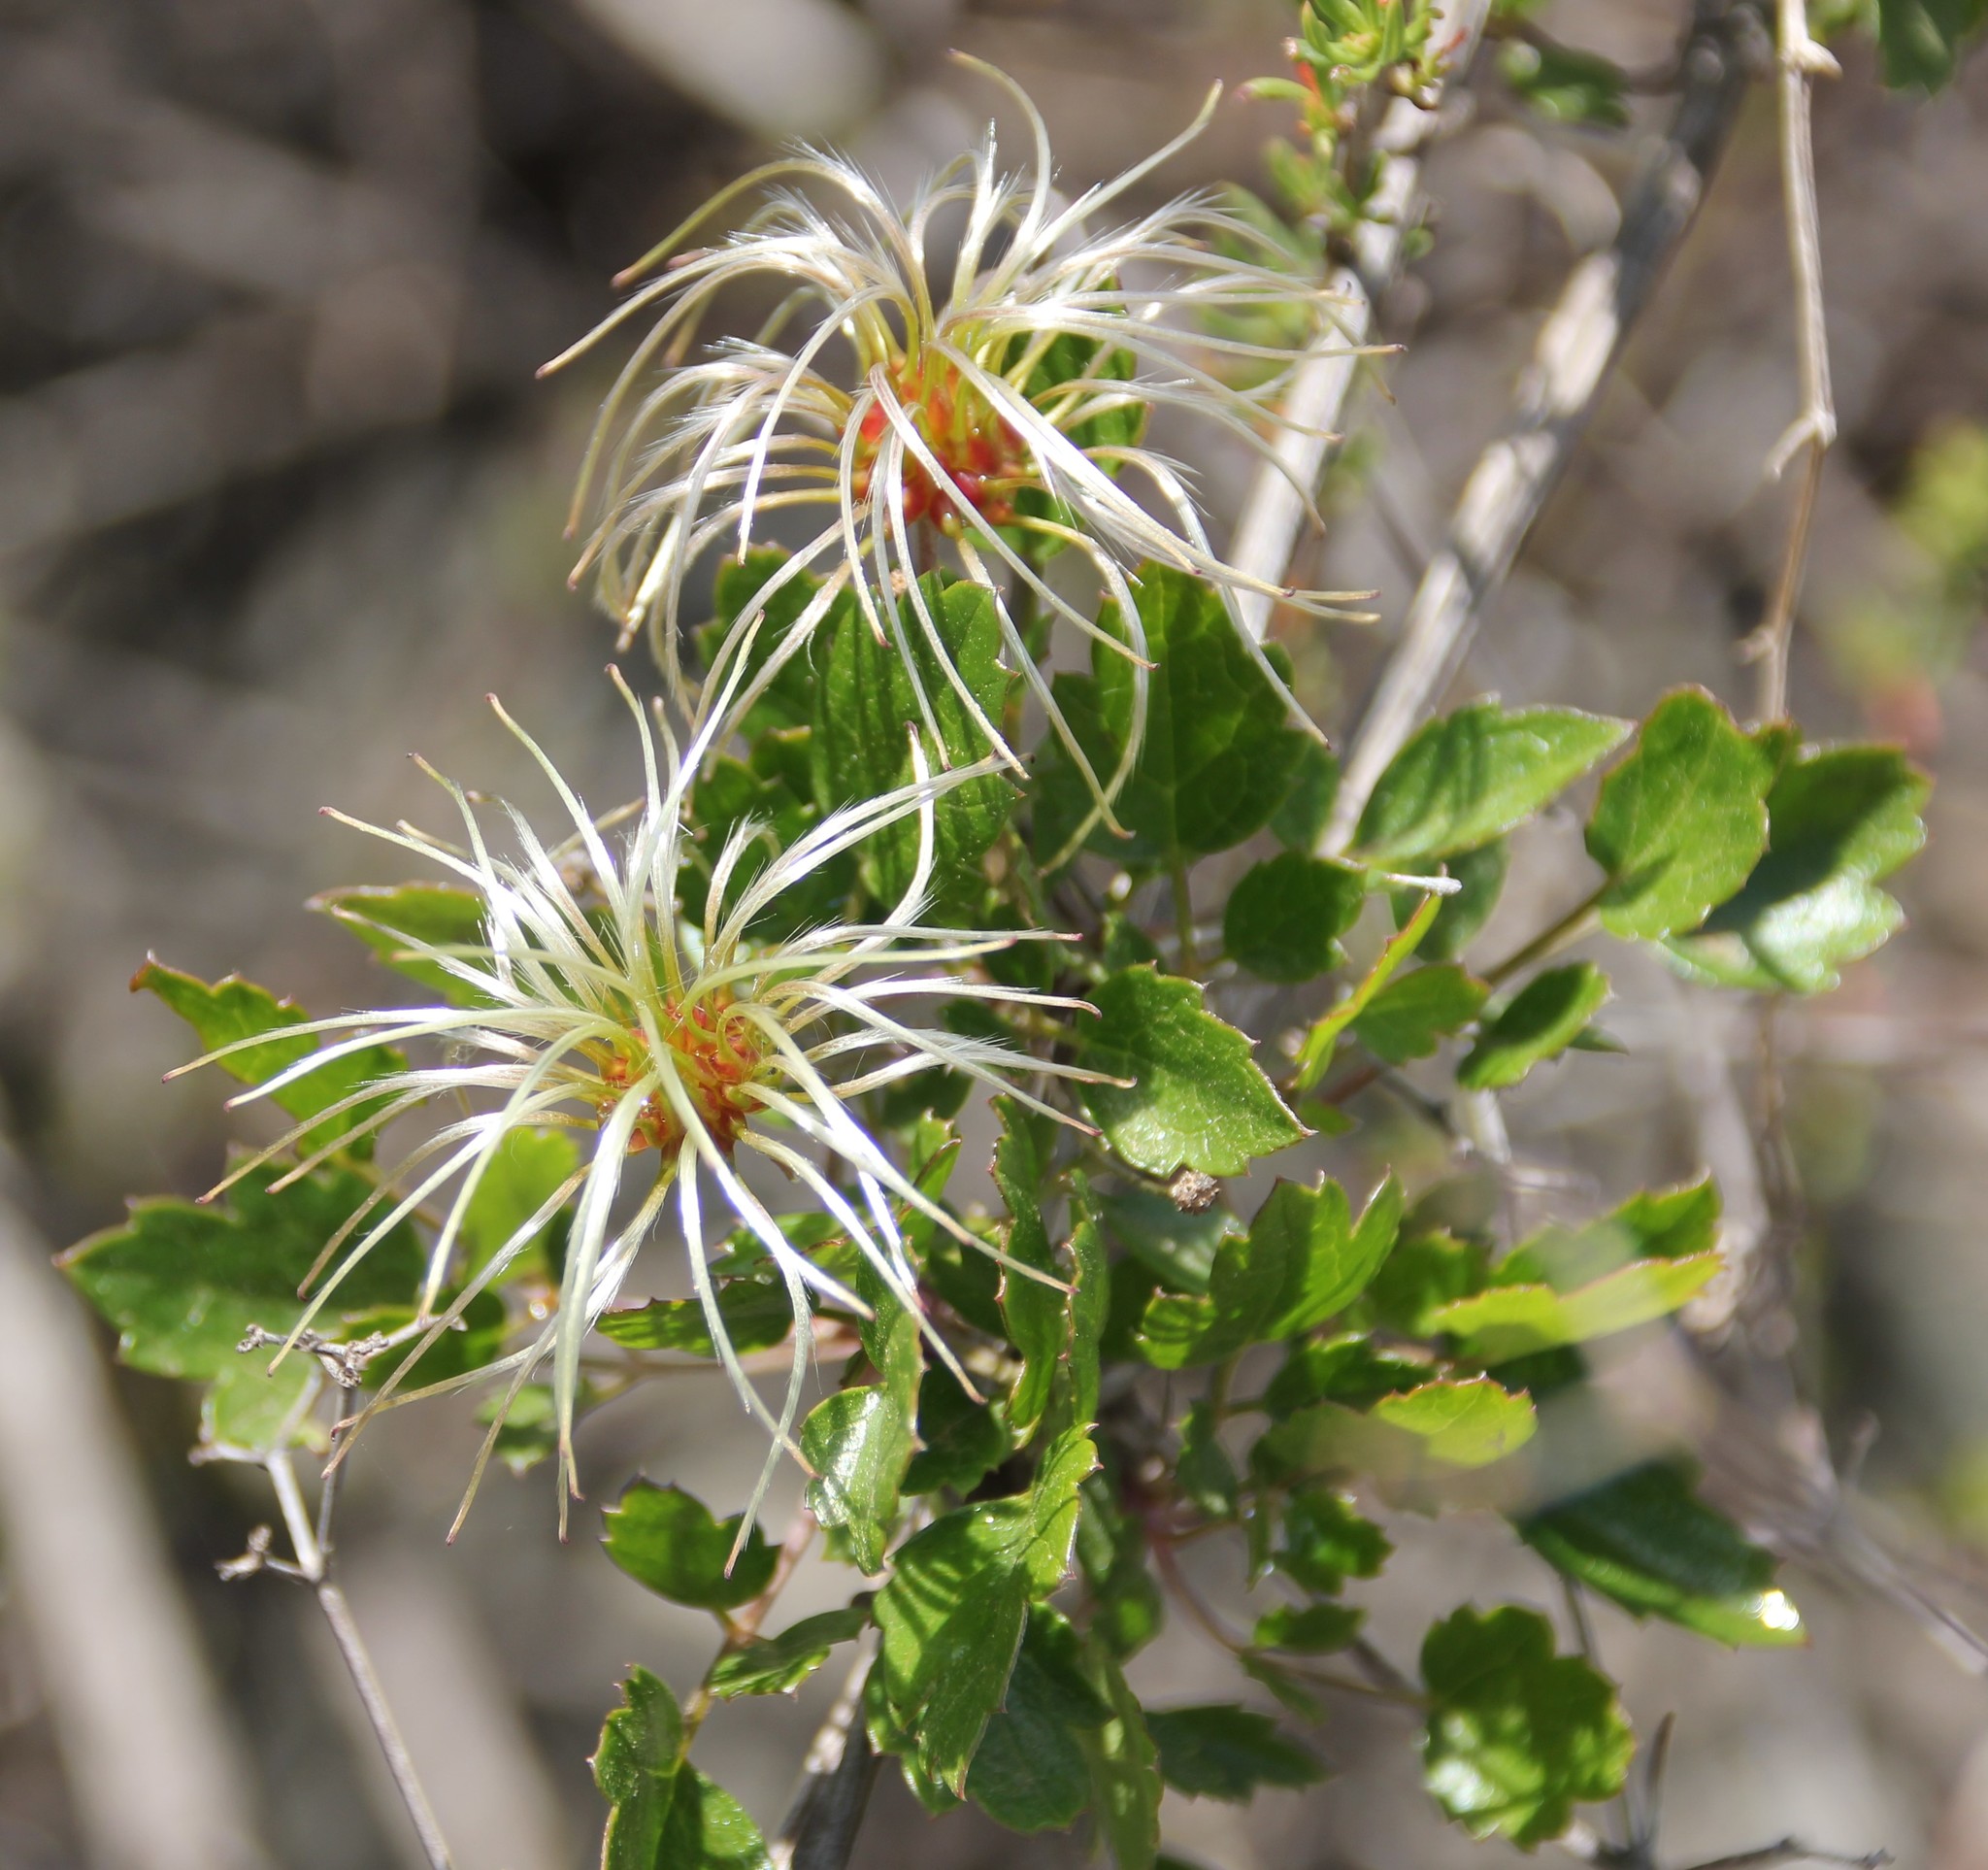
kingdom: Plantae
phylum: Tracheophyta
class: Magnoliopsida
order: Ranunculales
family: Ranunculaceae
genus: Clematis
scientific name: Clematis pauciflora
